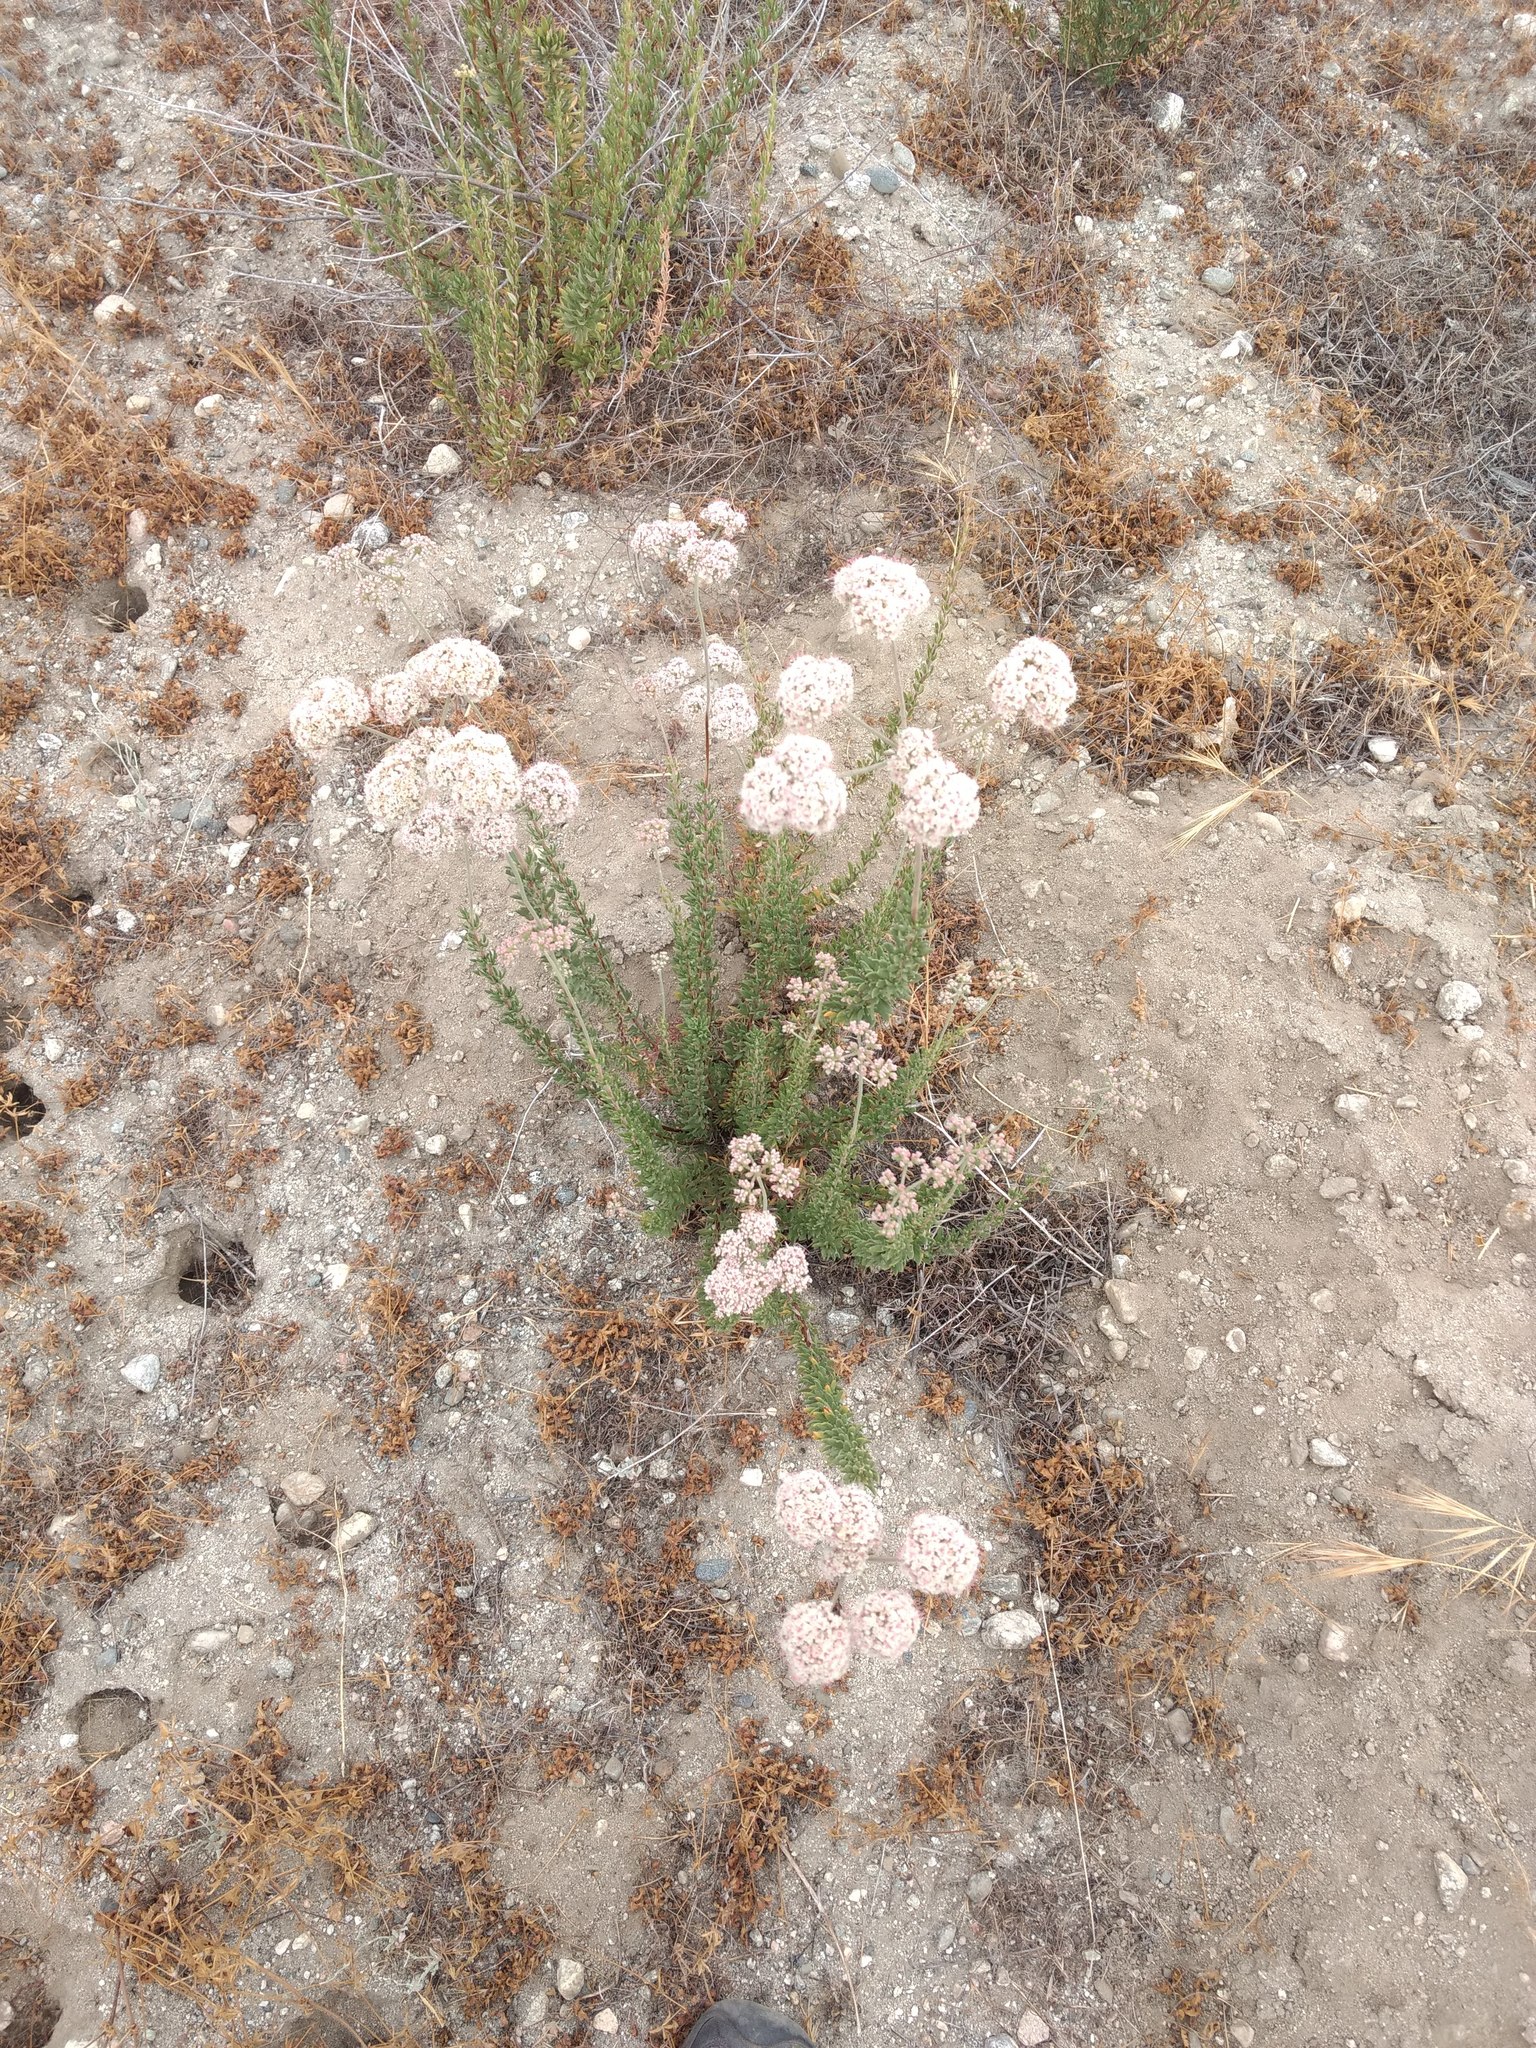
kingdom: Plantae
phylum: Tracheophyta
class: Magnoliopsida
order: Caryophyllales
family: Polygonaceae
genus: Eriogonum
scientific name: Eriogonum fasciculatum
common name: California wild buckwheat
